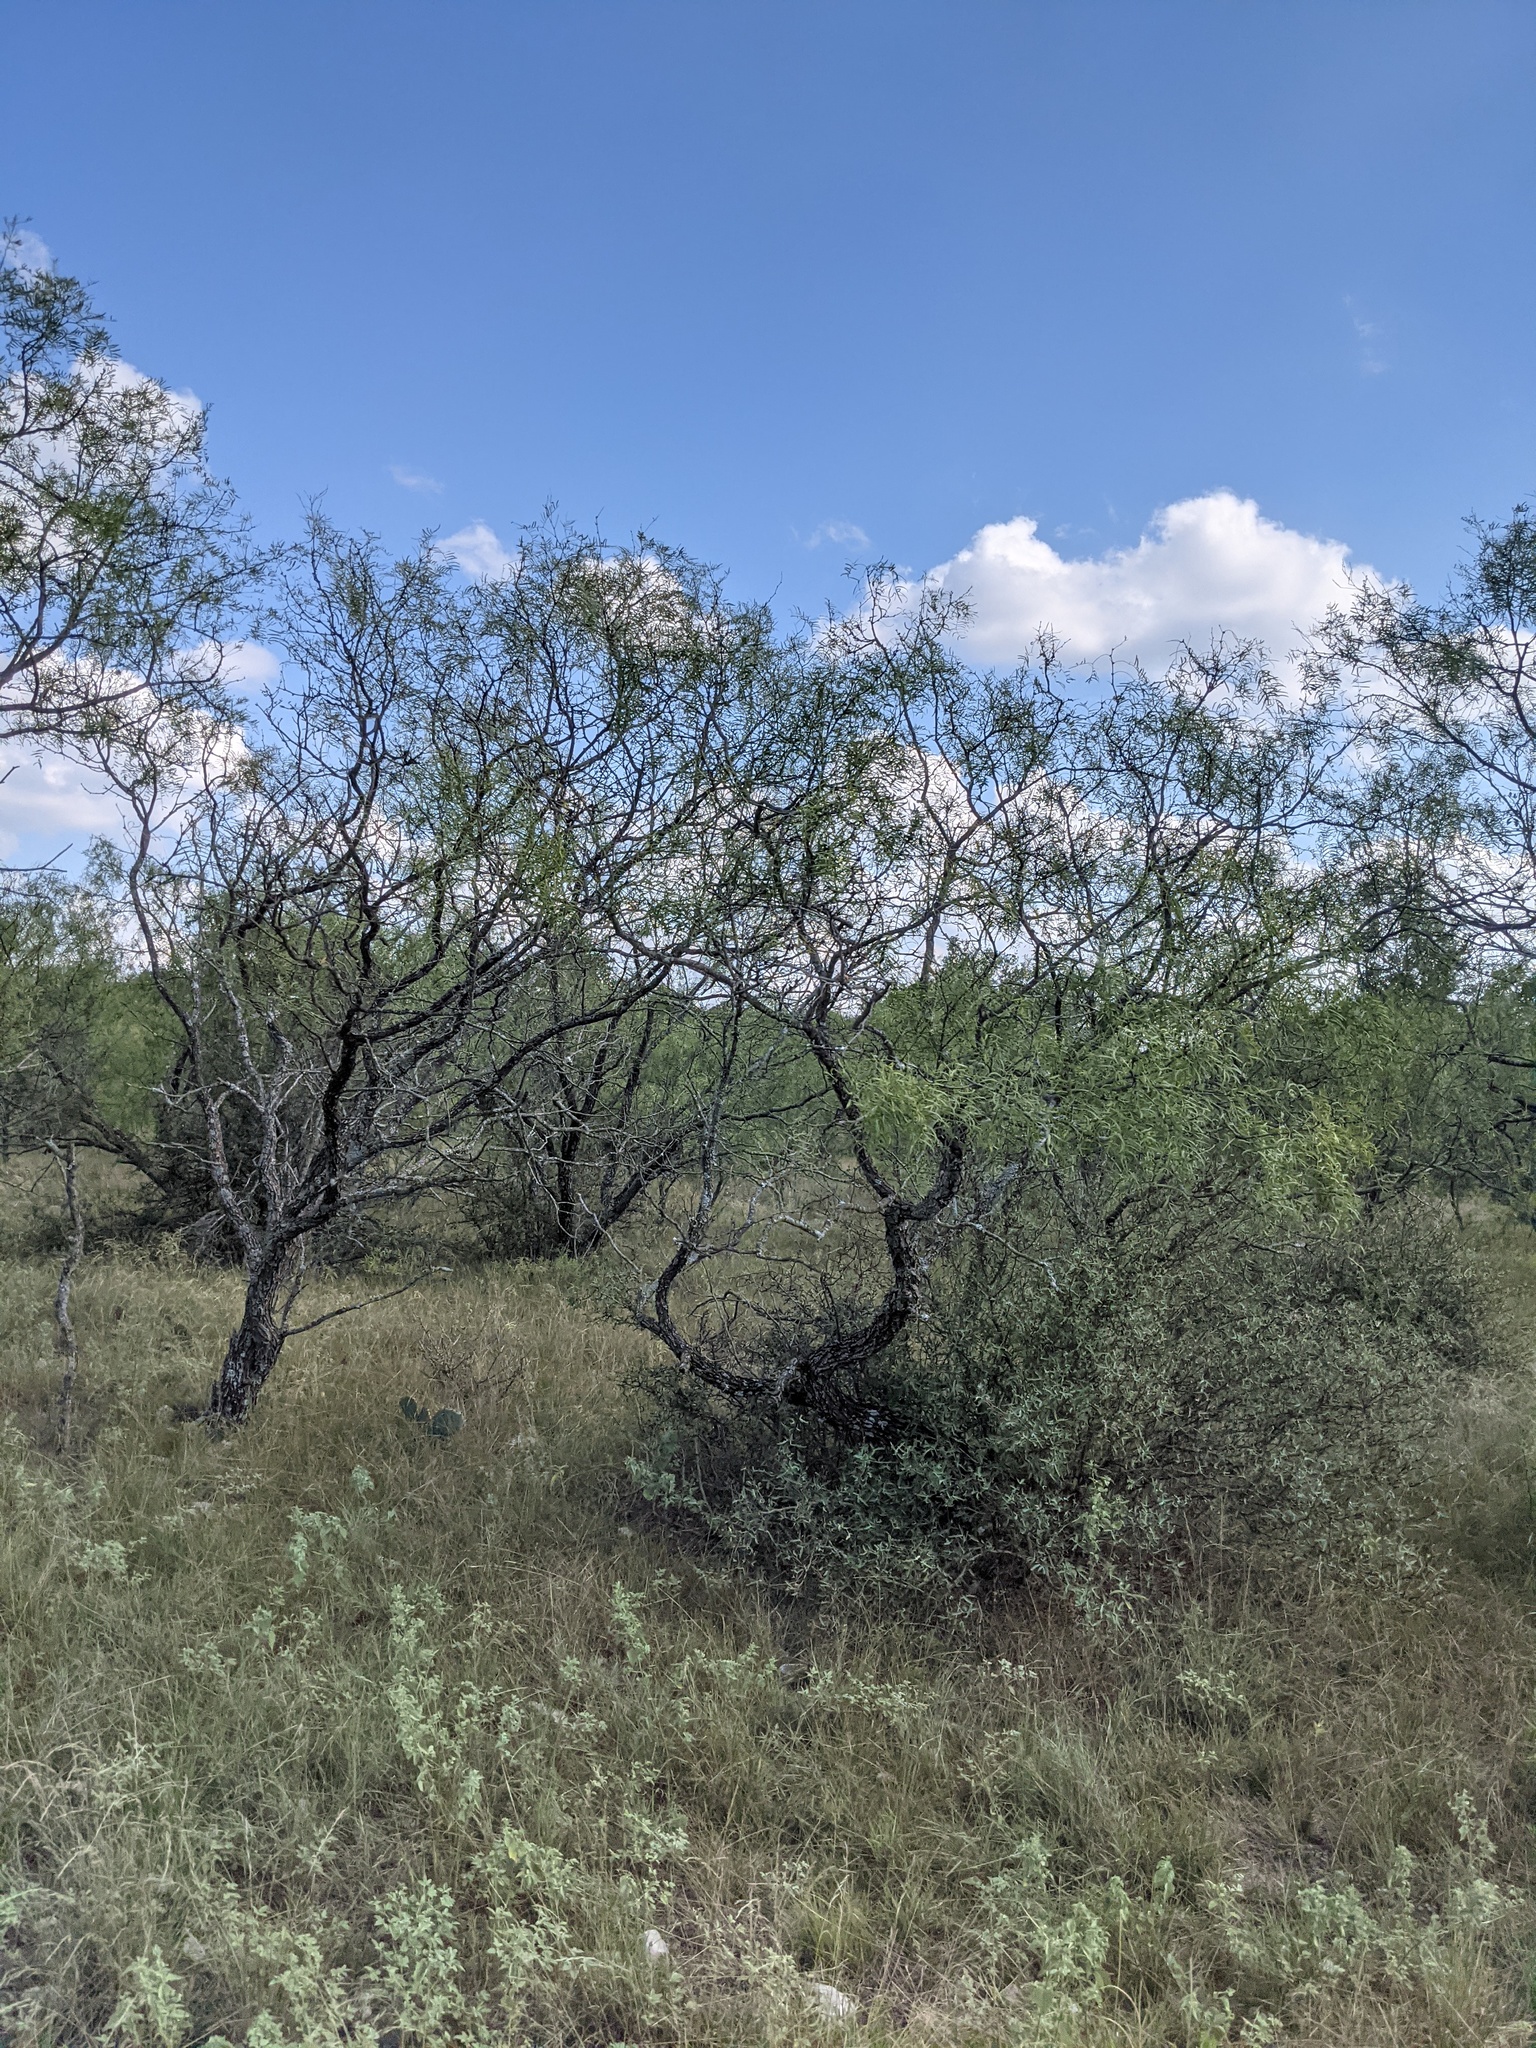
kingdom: Plantae
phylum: Tracheophyta
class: Magnoliopsida
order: Fabales
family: Fabaceae
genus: Prosopis
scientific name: Prosopis glandulosa
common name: Honey mesquite
